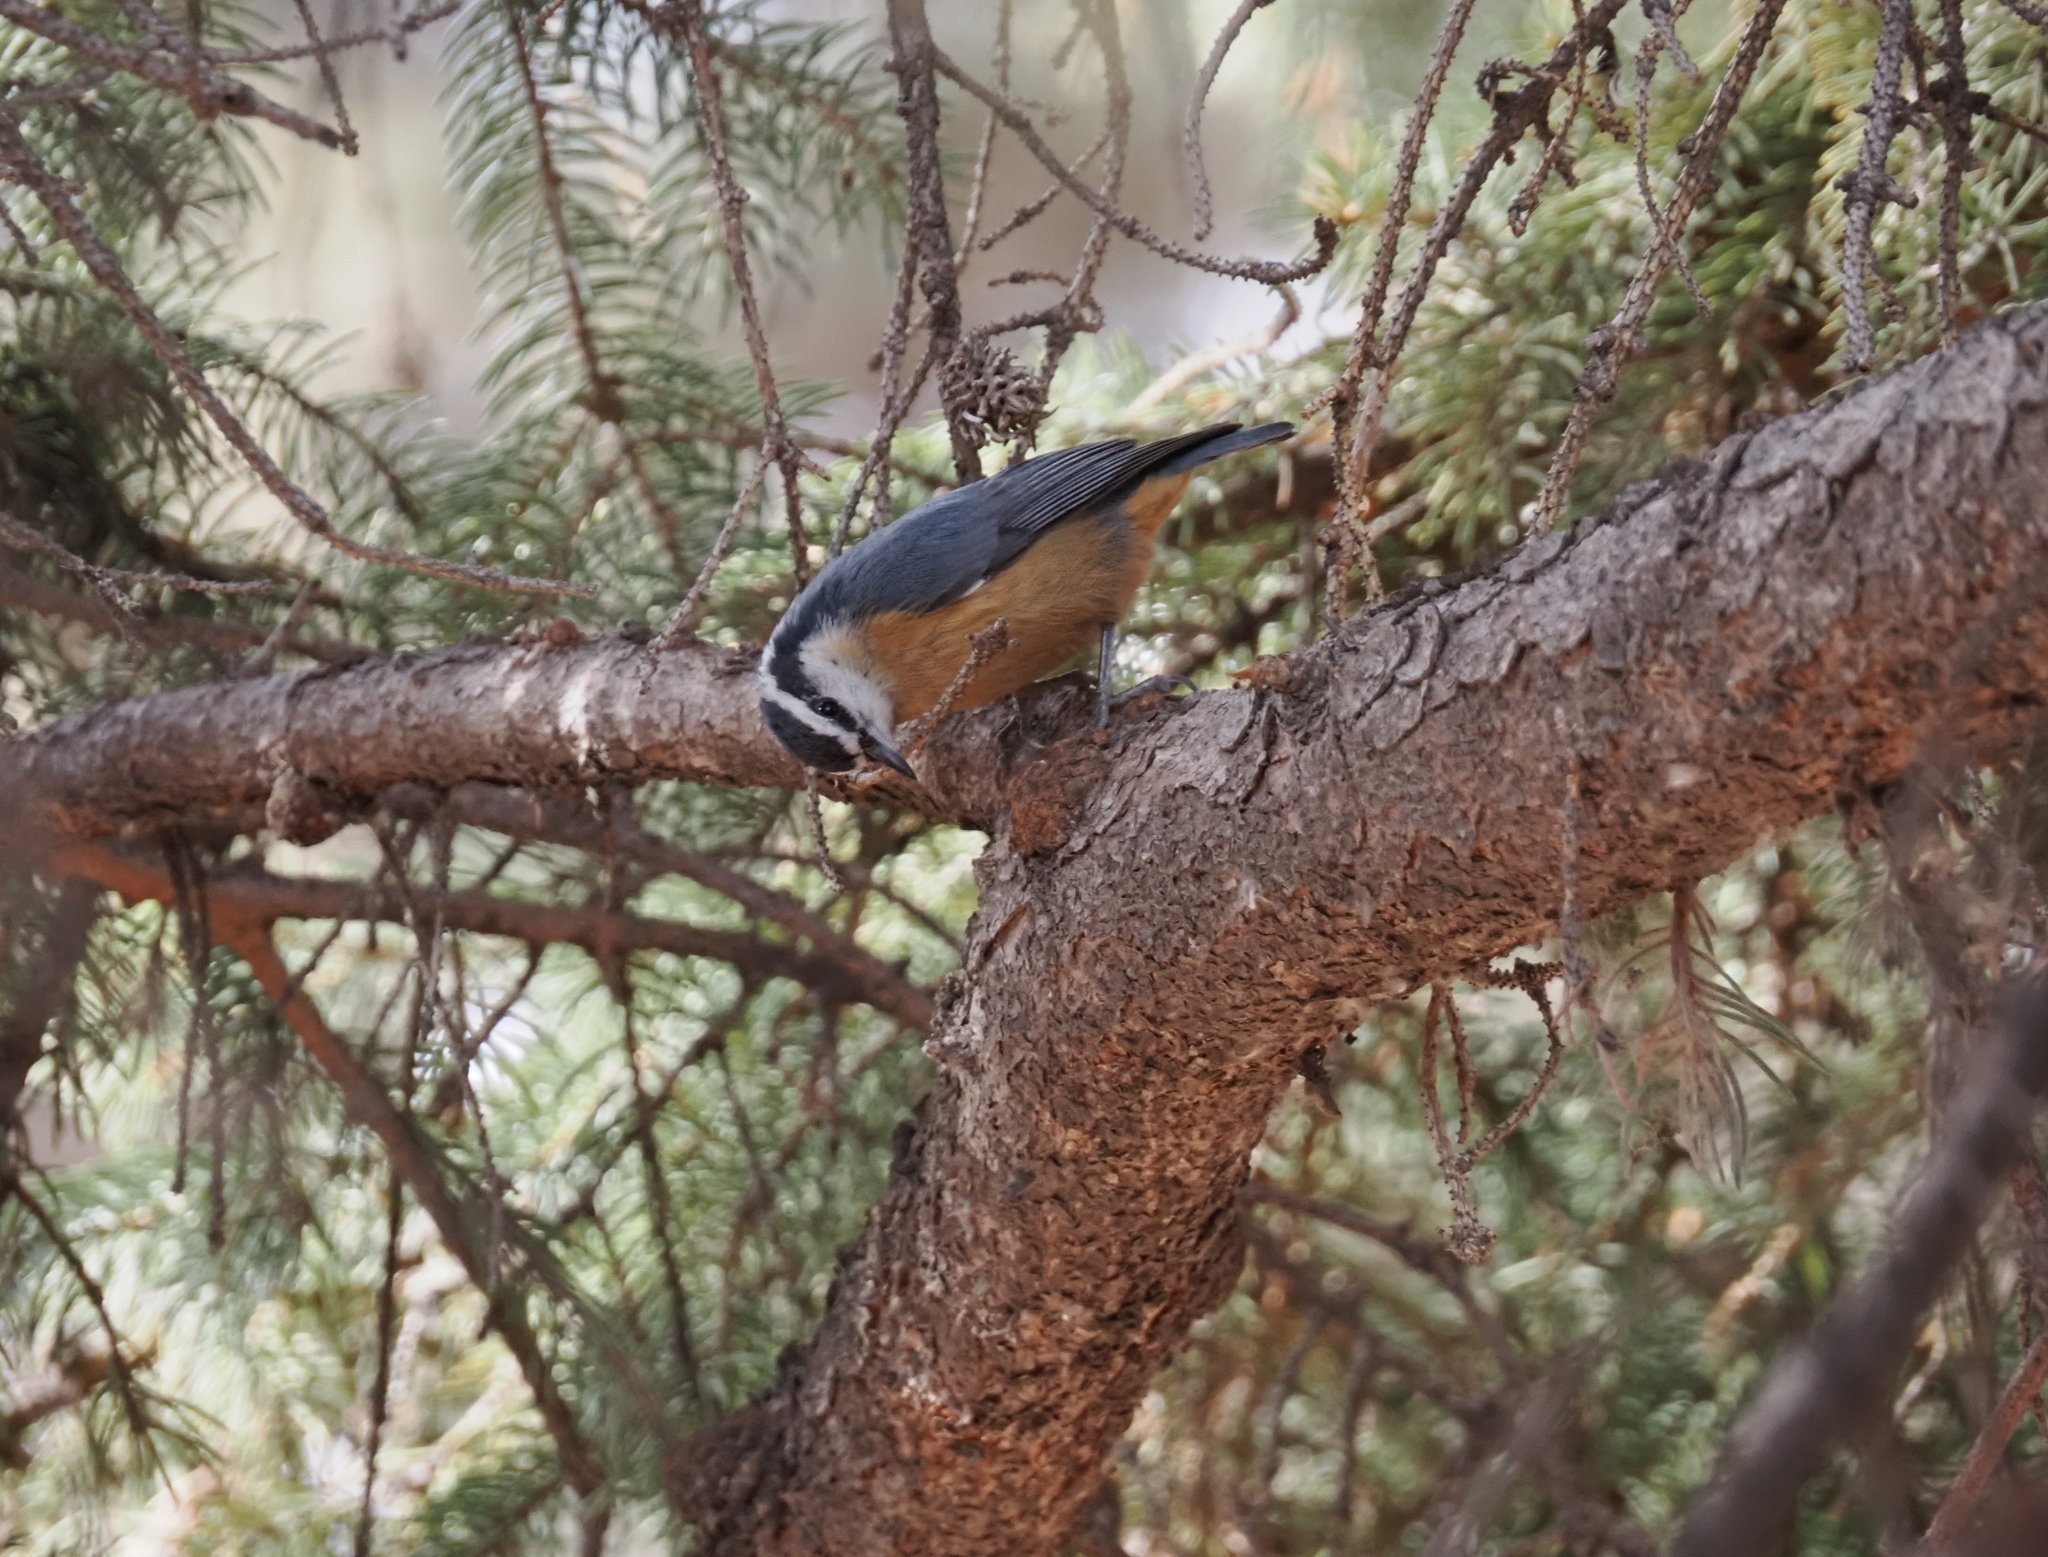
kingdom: Animalia
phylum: Chordata
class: Aves
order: Passeriformes
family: Sittidae
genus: Sitta
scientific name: Sitta canadensis
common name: Red-breasted nuthatch
